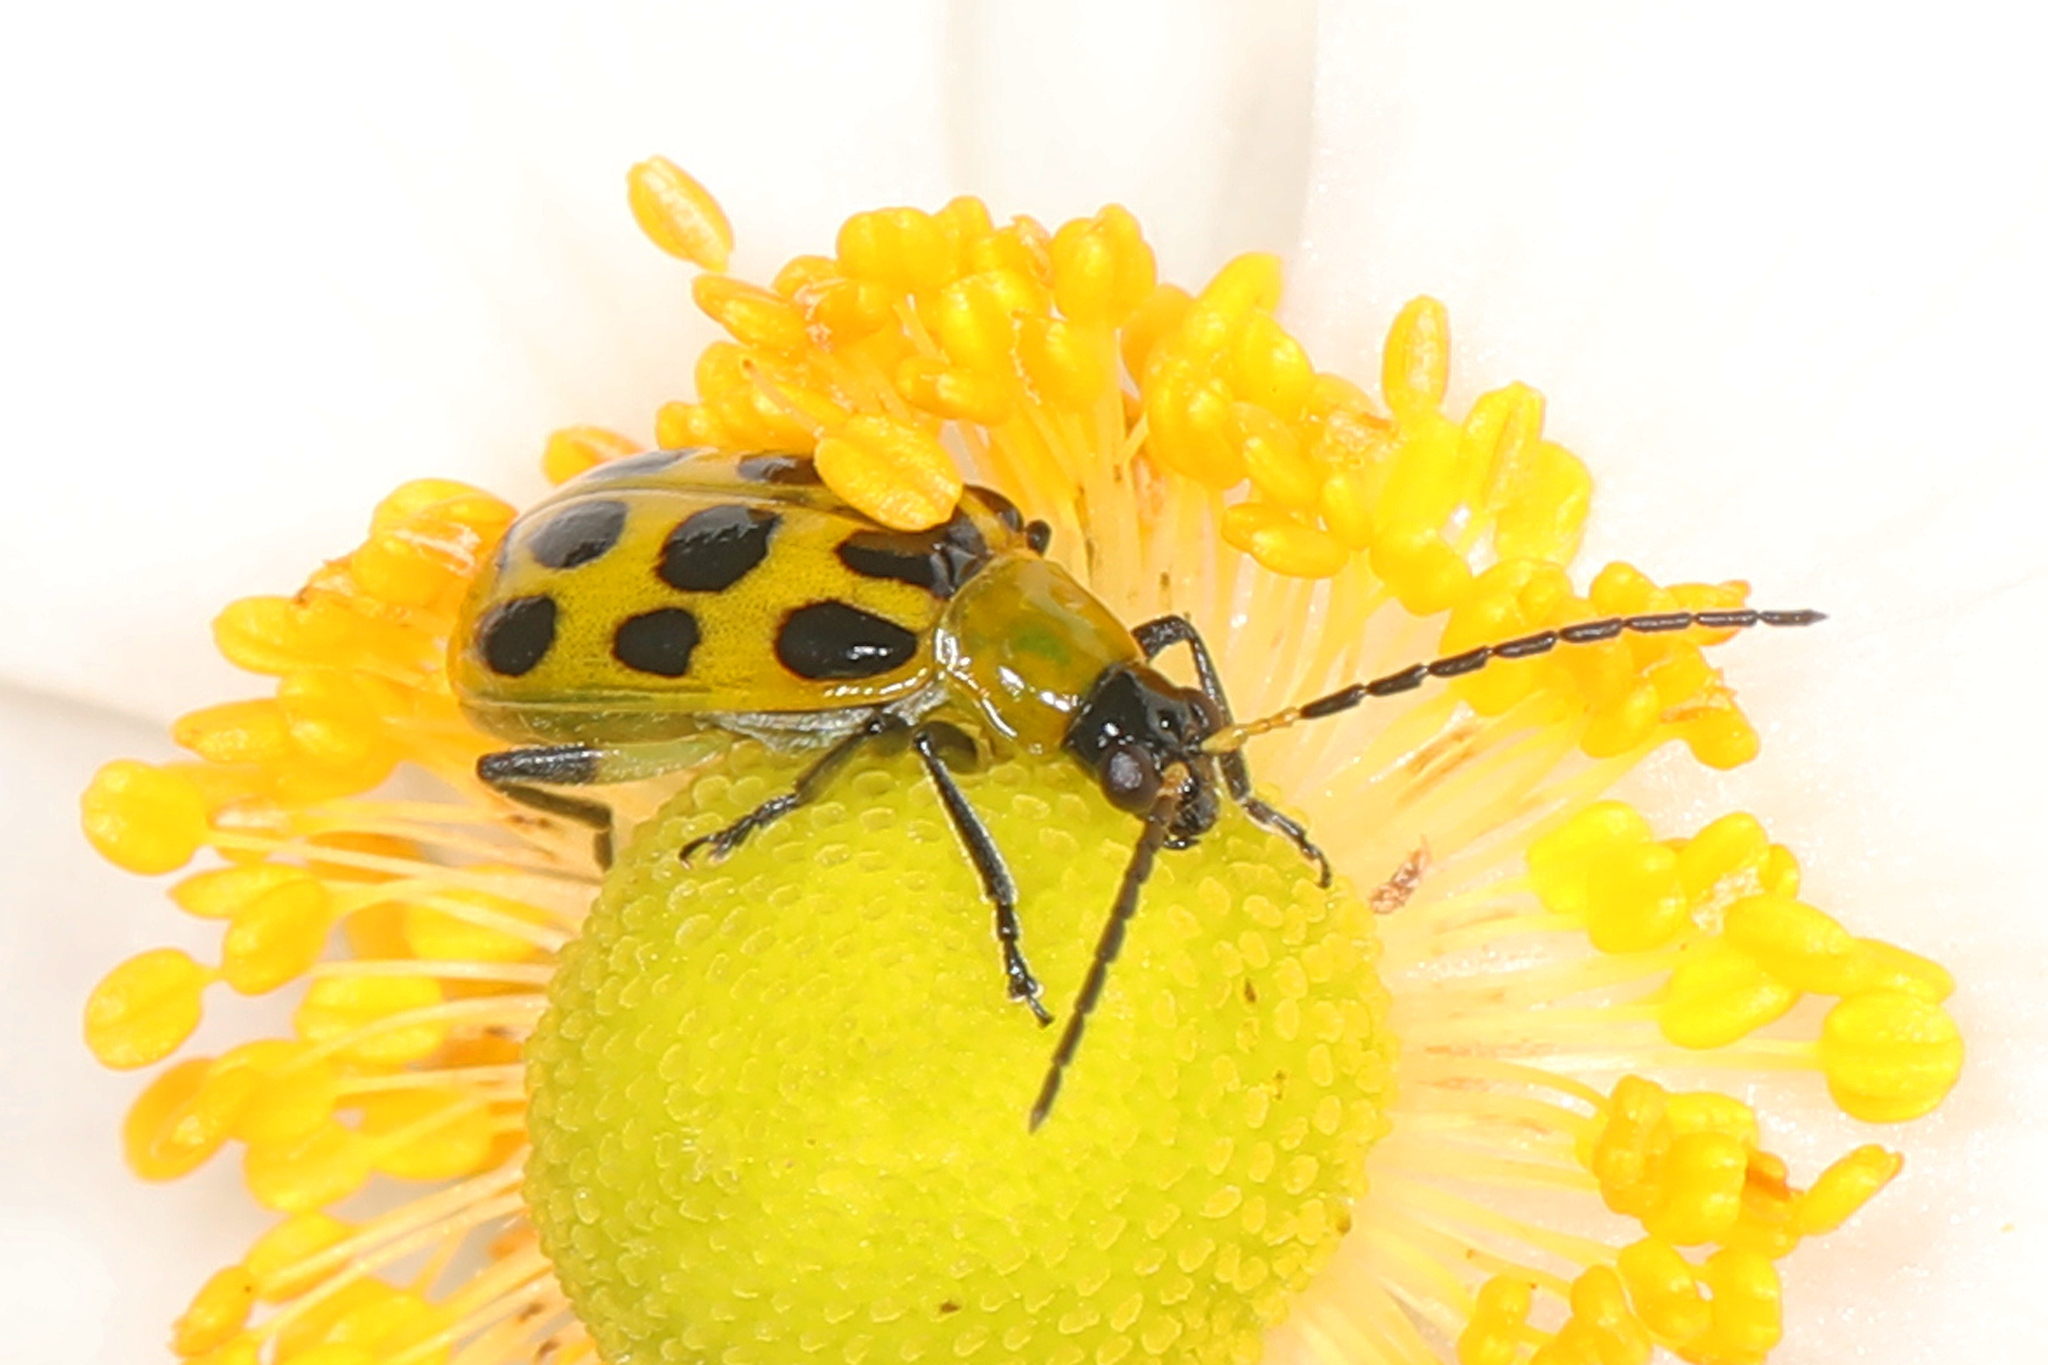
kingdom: Animalia
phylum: Arthropoda
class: Insecta
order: Coleoptera
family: Chrysomelidae
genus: Diabrotica
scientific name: Diabrotica undecimpunctata
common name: Spotted cucumber beetle
